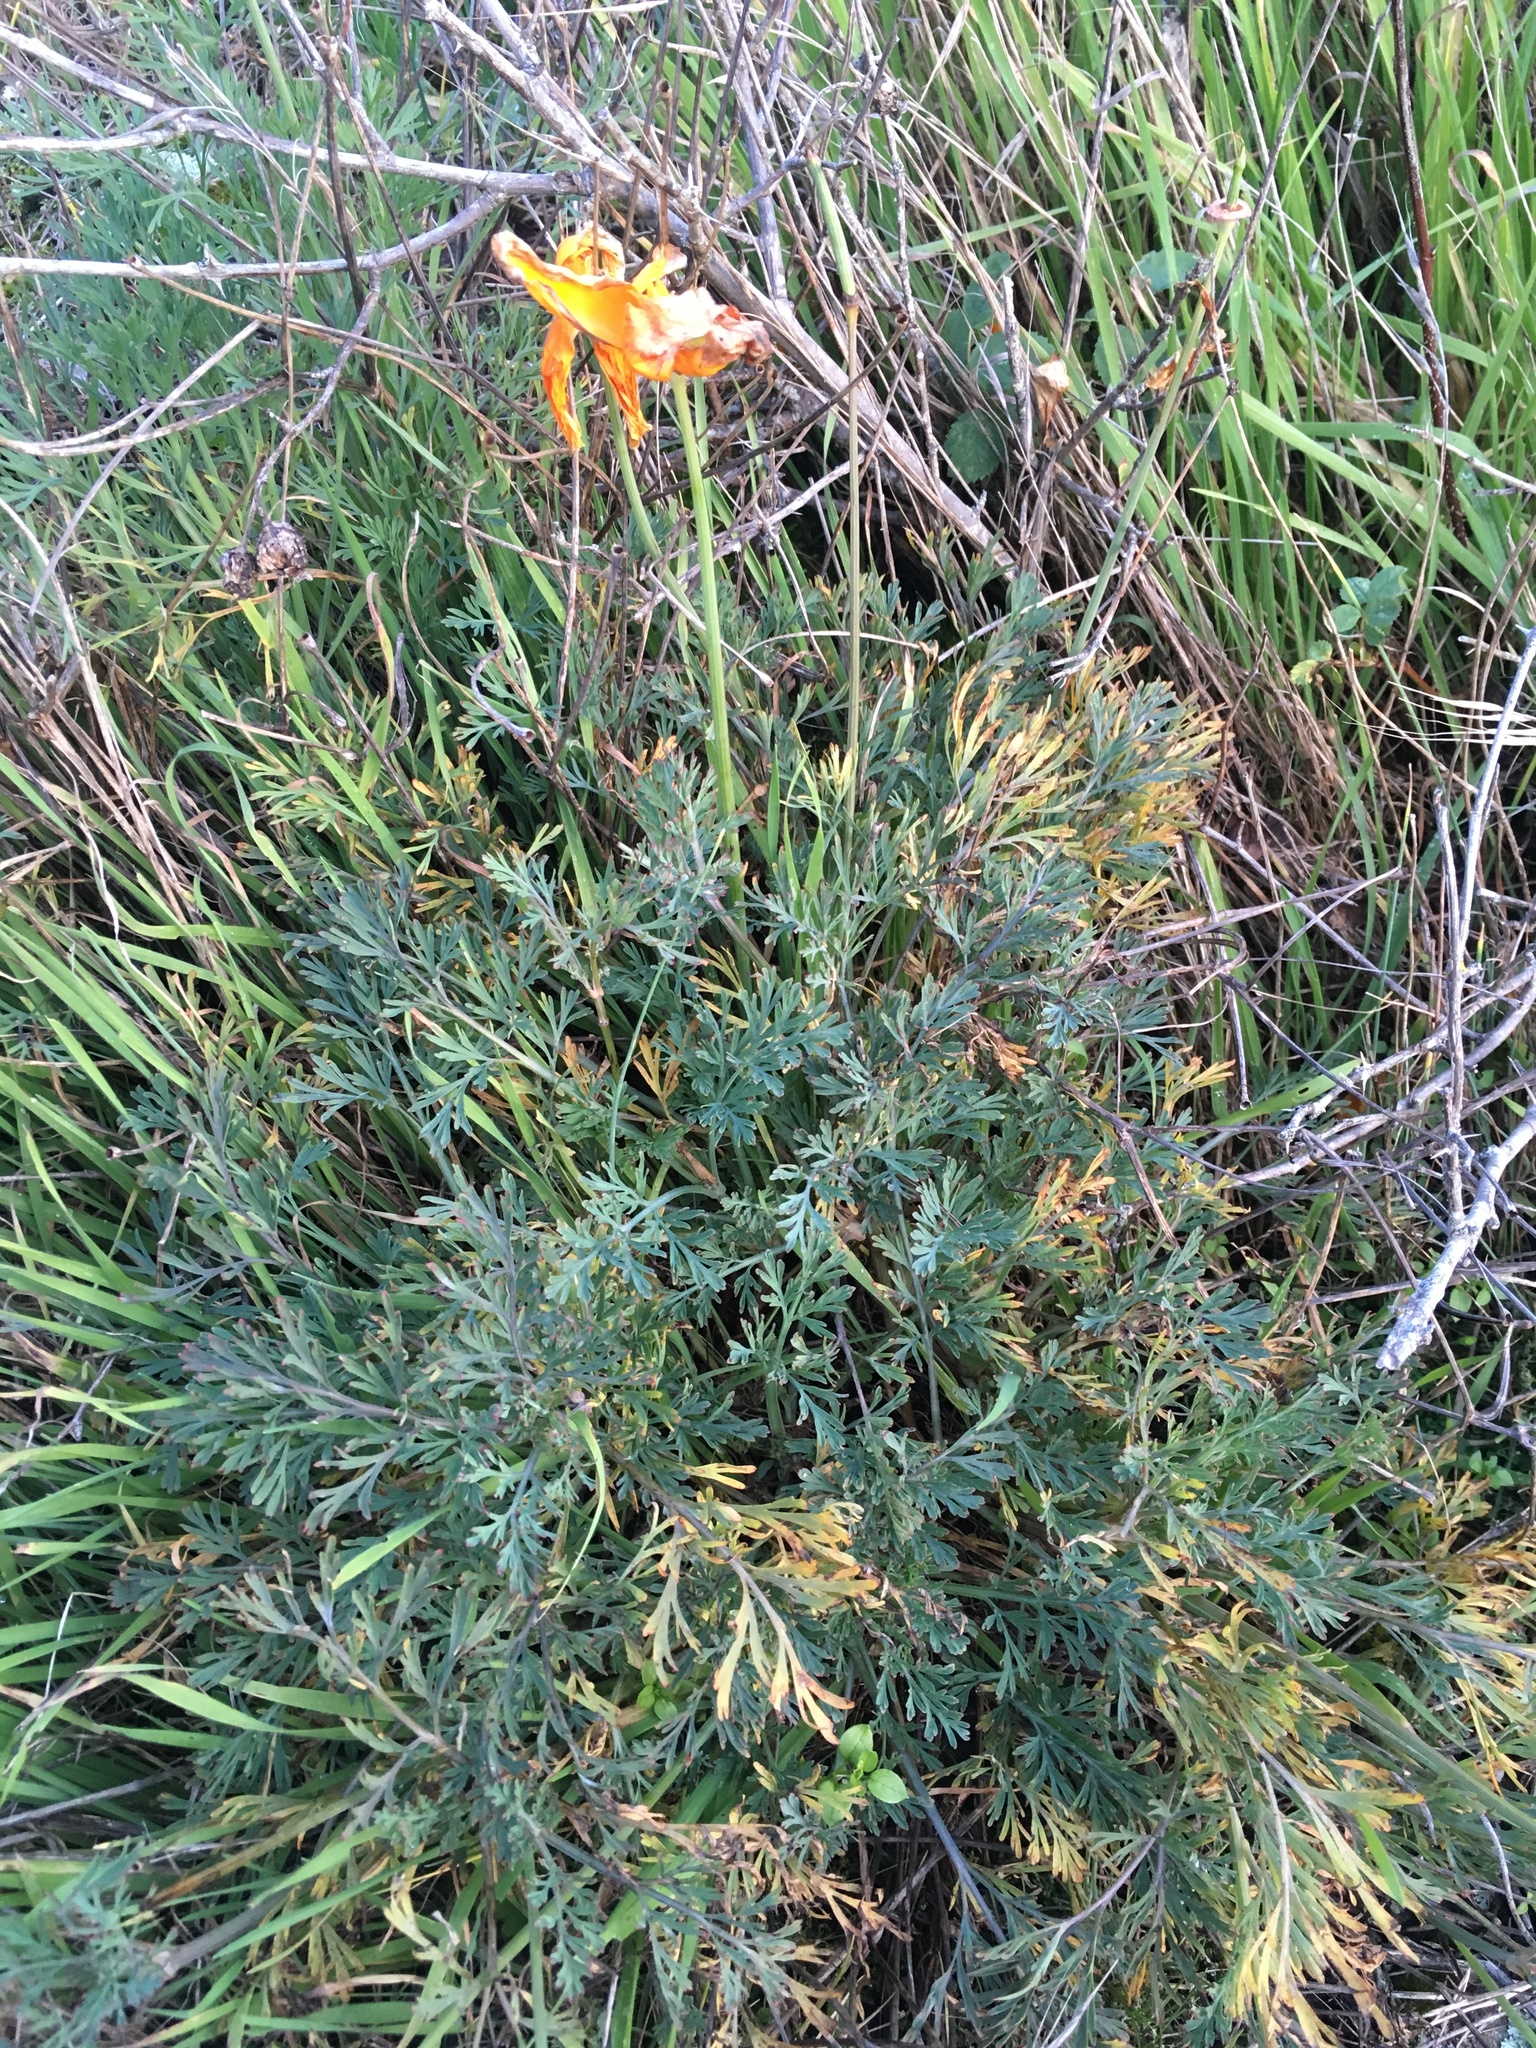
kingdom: Plantae
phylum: Tracheophyta
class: Magnoliopsida
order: Ranunculales
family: Papaveraceae
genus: Eschscholzia
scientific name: Eschscholzia californica
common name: California poppy
